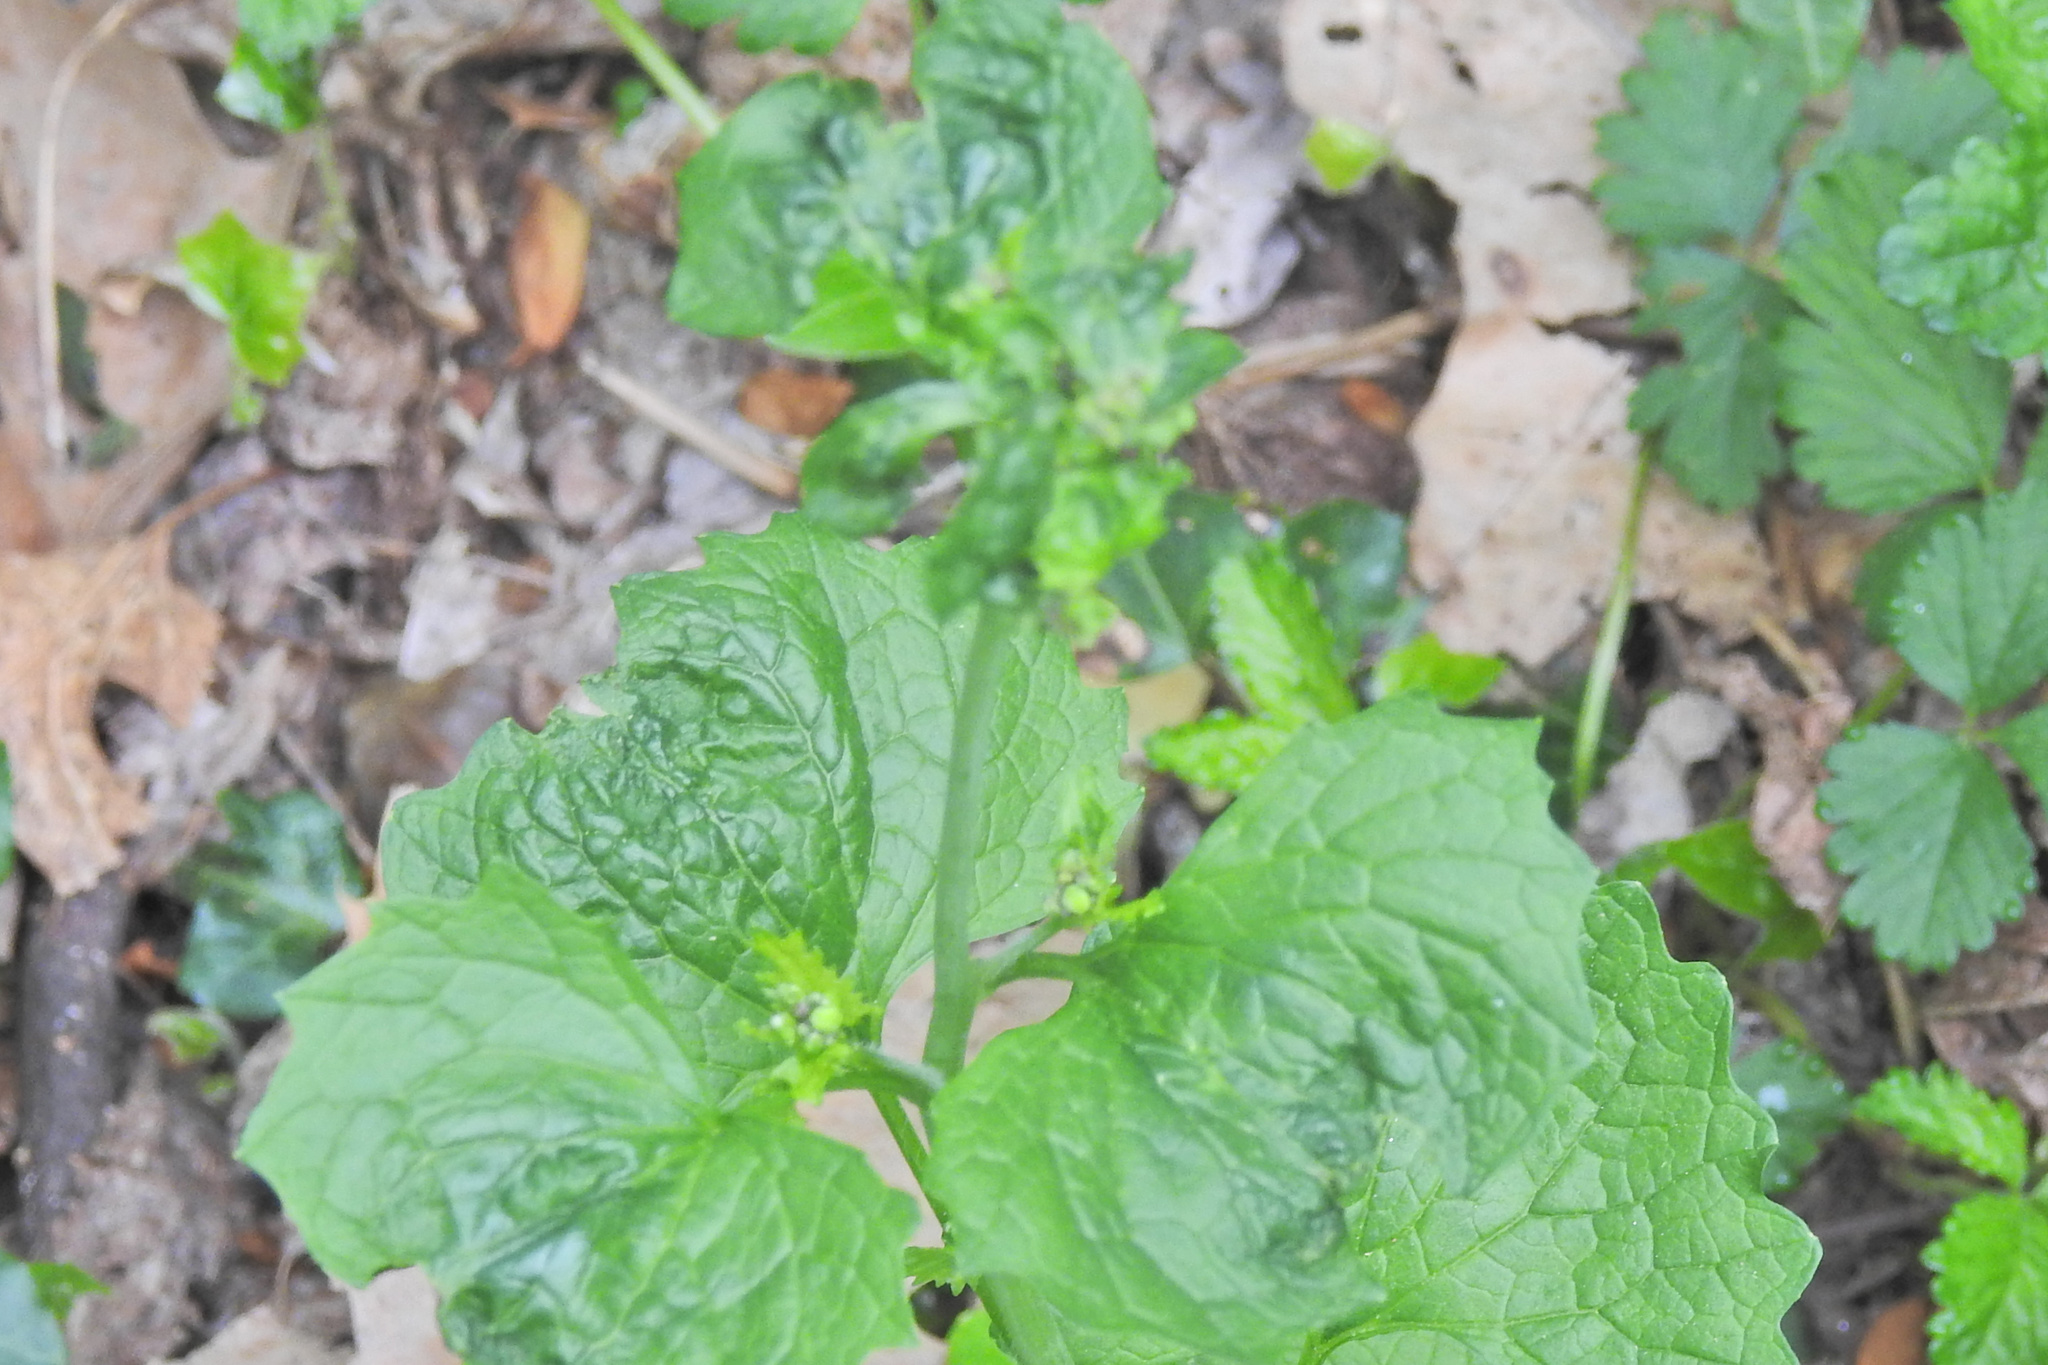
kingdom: Viruses
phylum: Kitrinoviricota
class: Tolucaviricetes
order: Tolivirales
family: Tombusviridae
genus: Betacarmovirus
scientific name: Betacarmovirus brassicae
